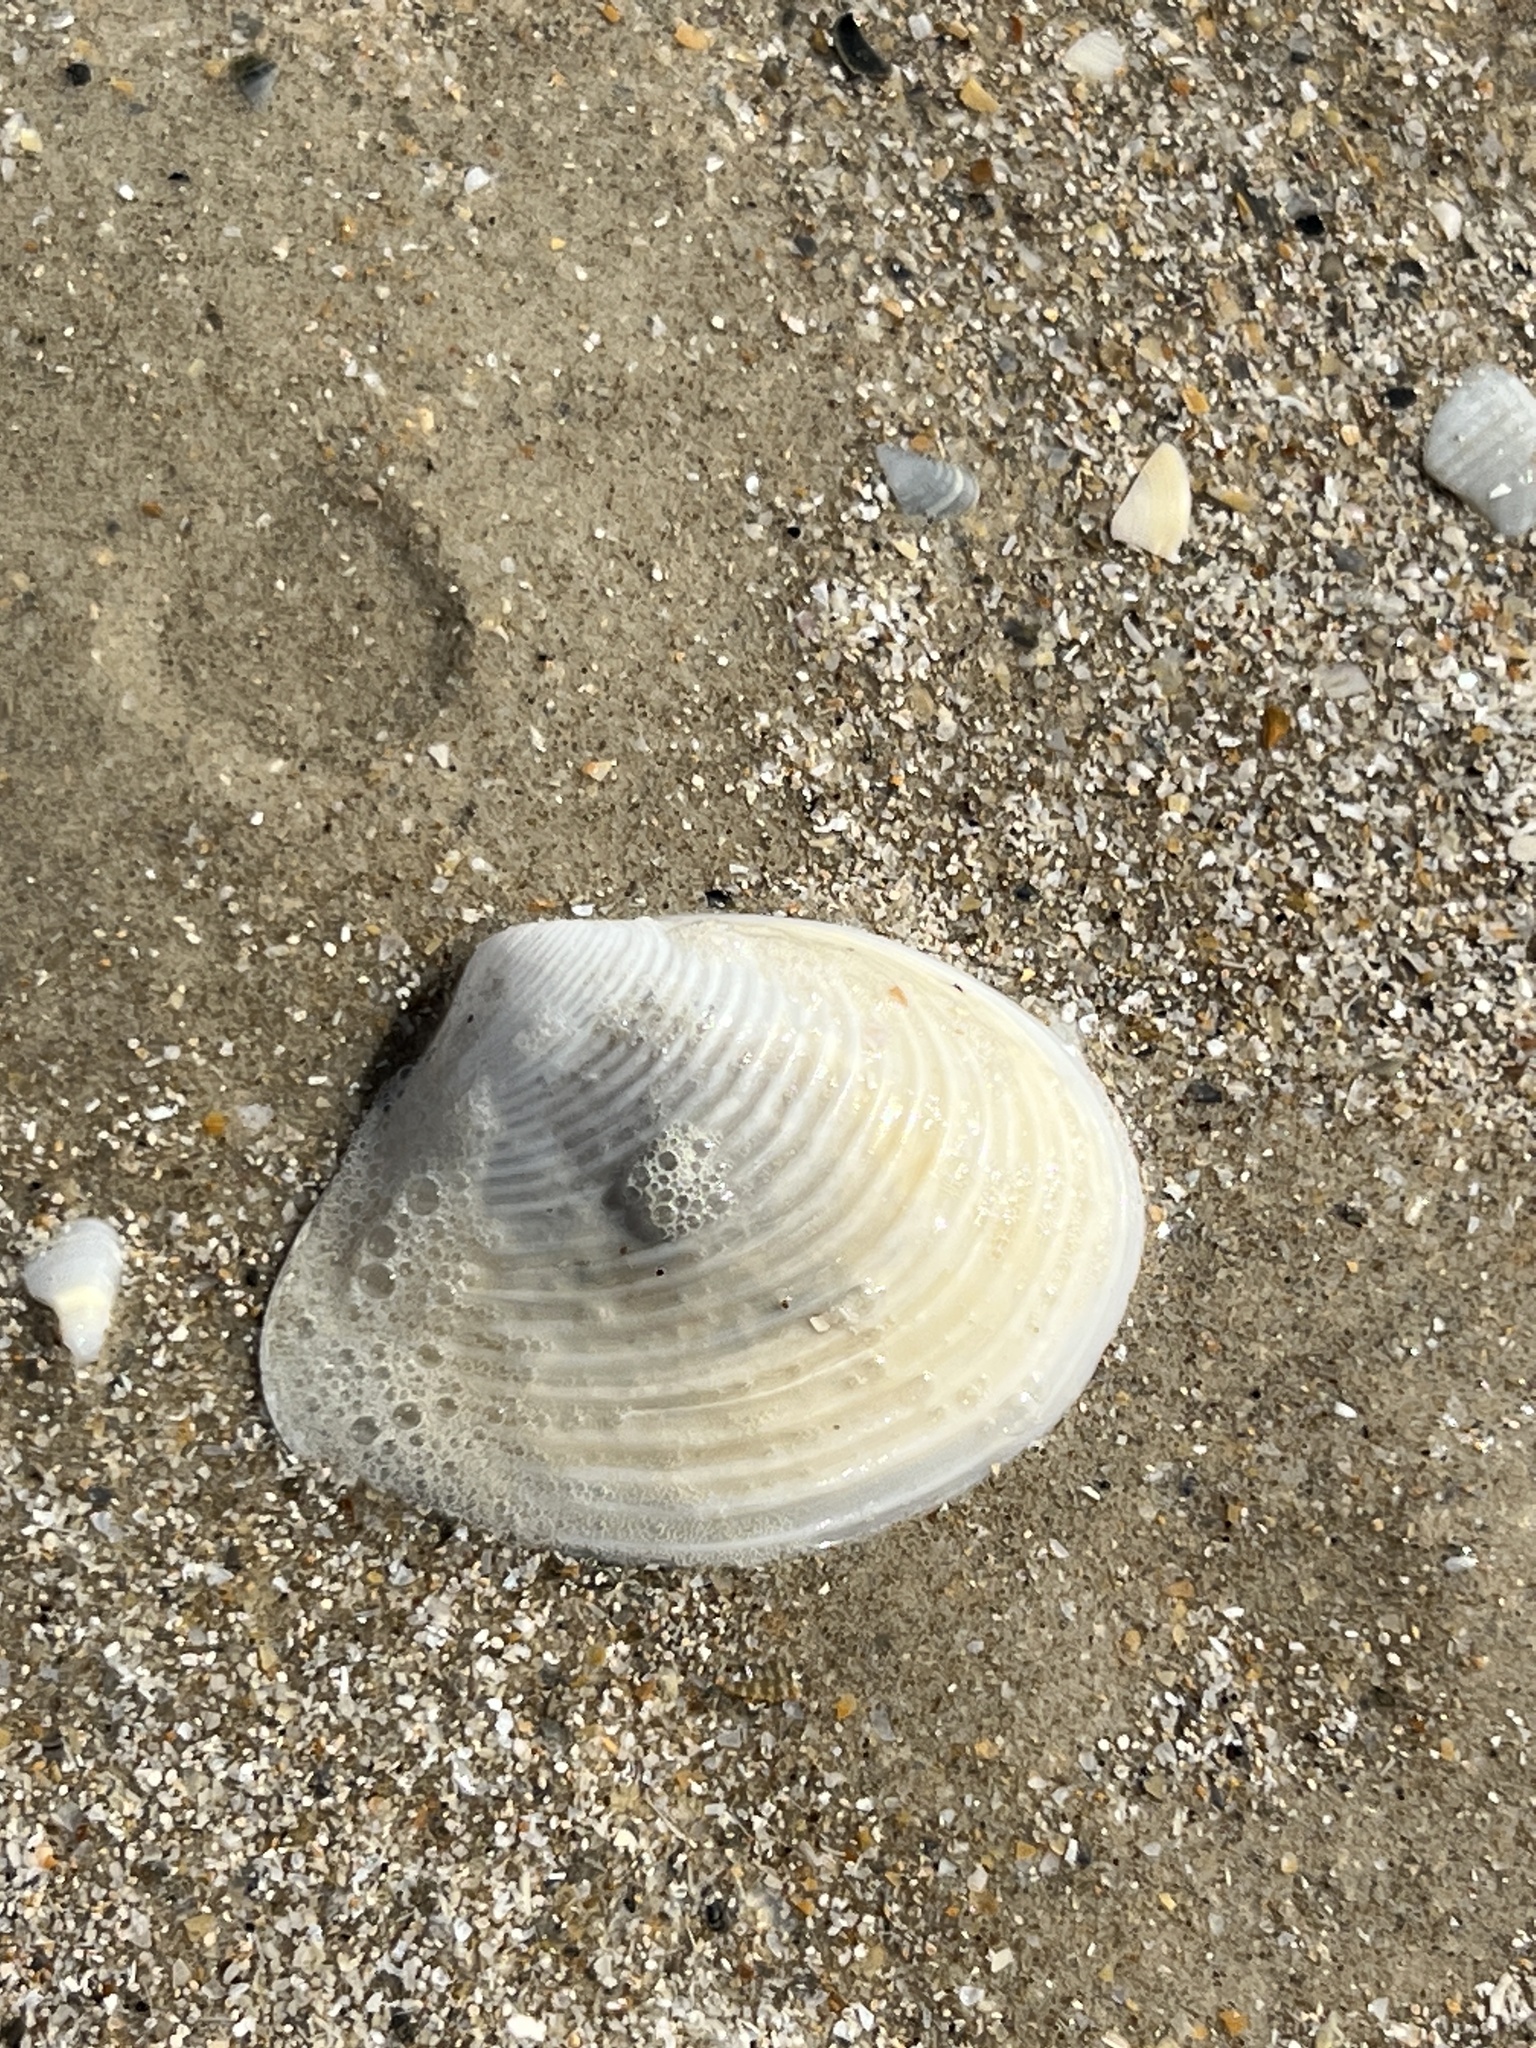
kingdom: Animalia
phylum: Mollusca
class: Bivalvia
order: Venerida
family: Anatinellidae
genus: Raeta
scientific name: Raeta plicatella
